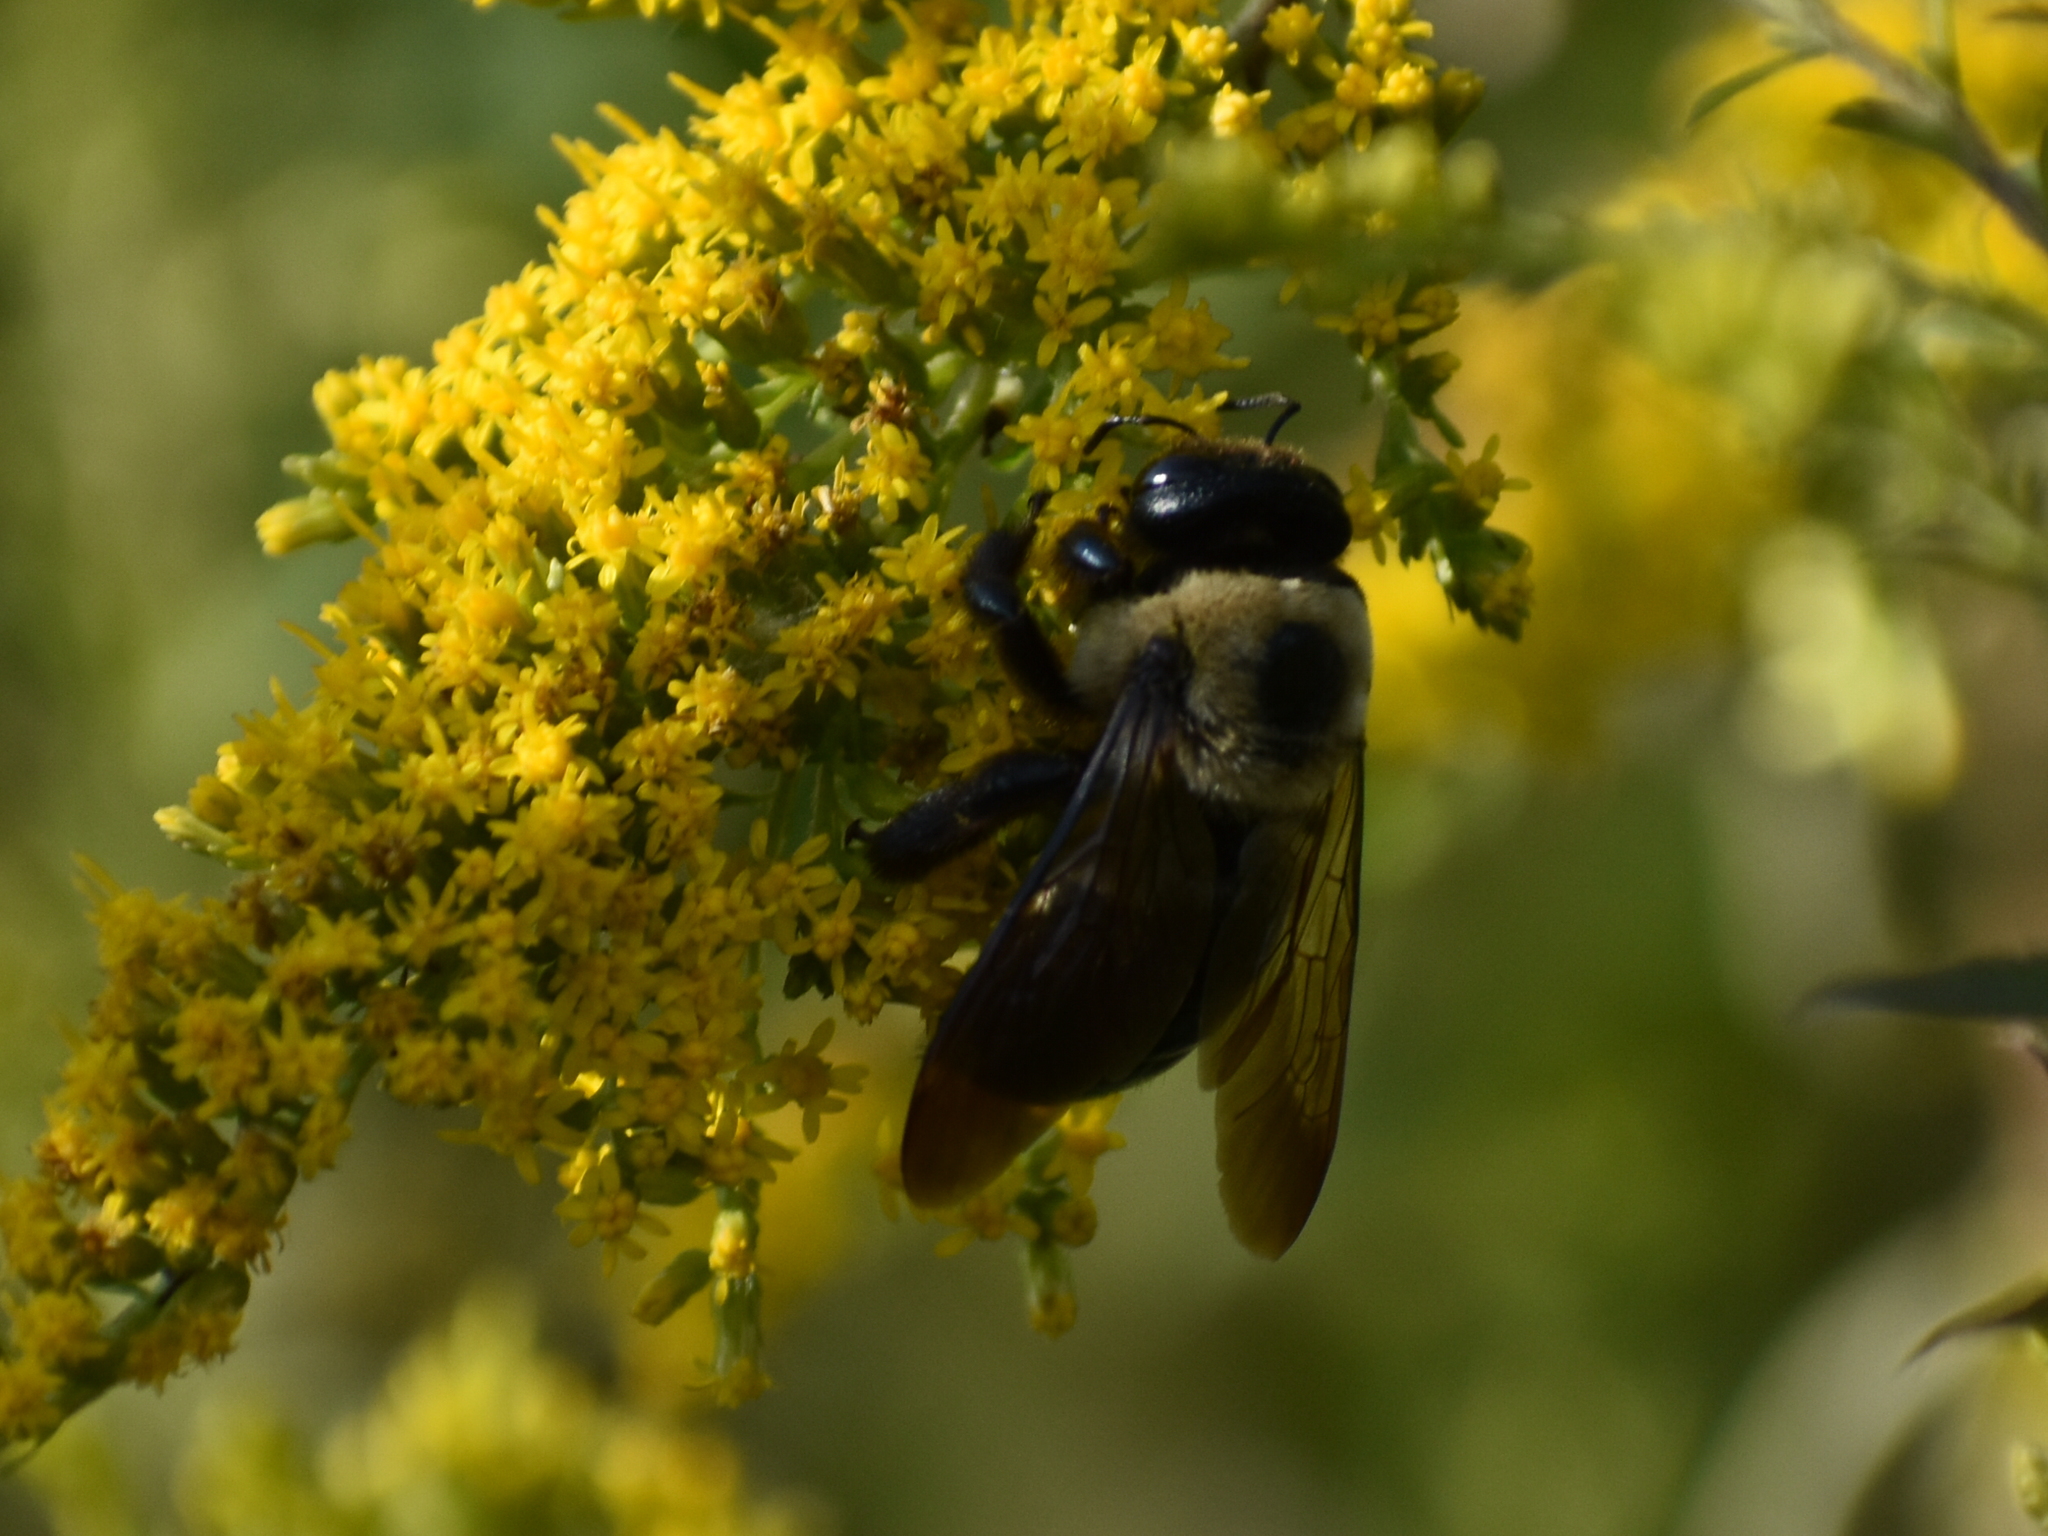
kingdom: Animalia
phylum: Arthropoda
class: Insecta
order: Hymenoptera
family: Apidae
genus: Xylocopa
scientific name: Xylocopa virginica
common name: Carpenter bee
